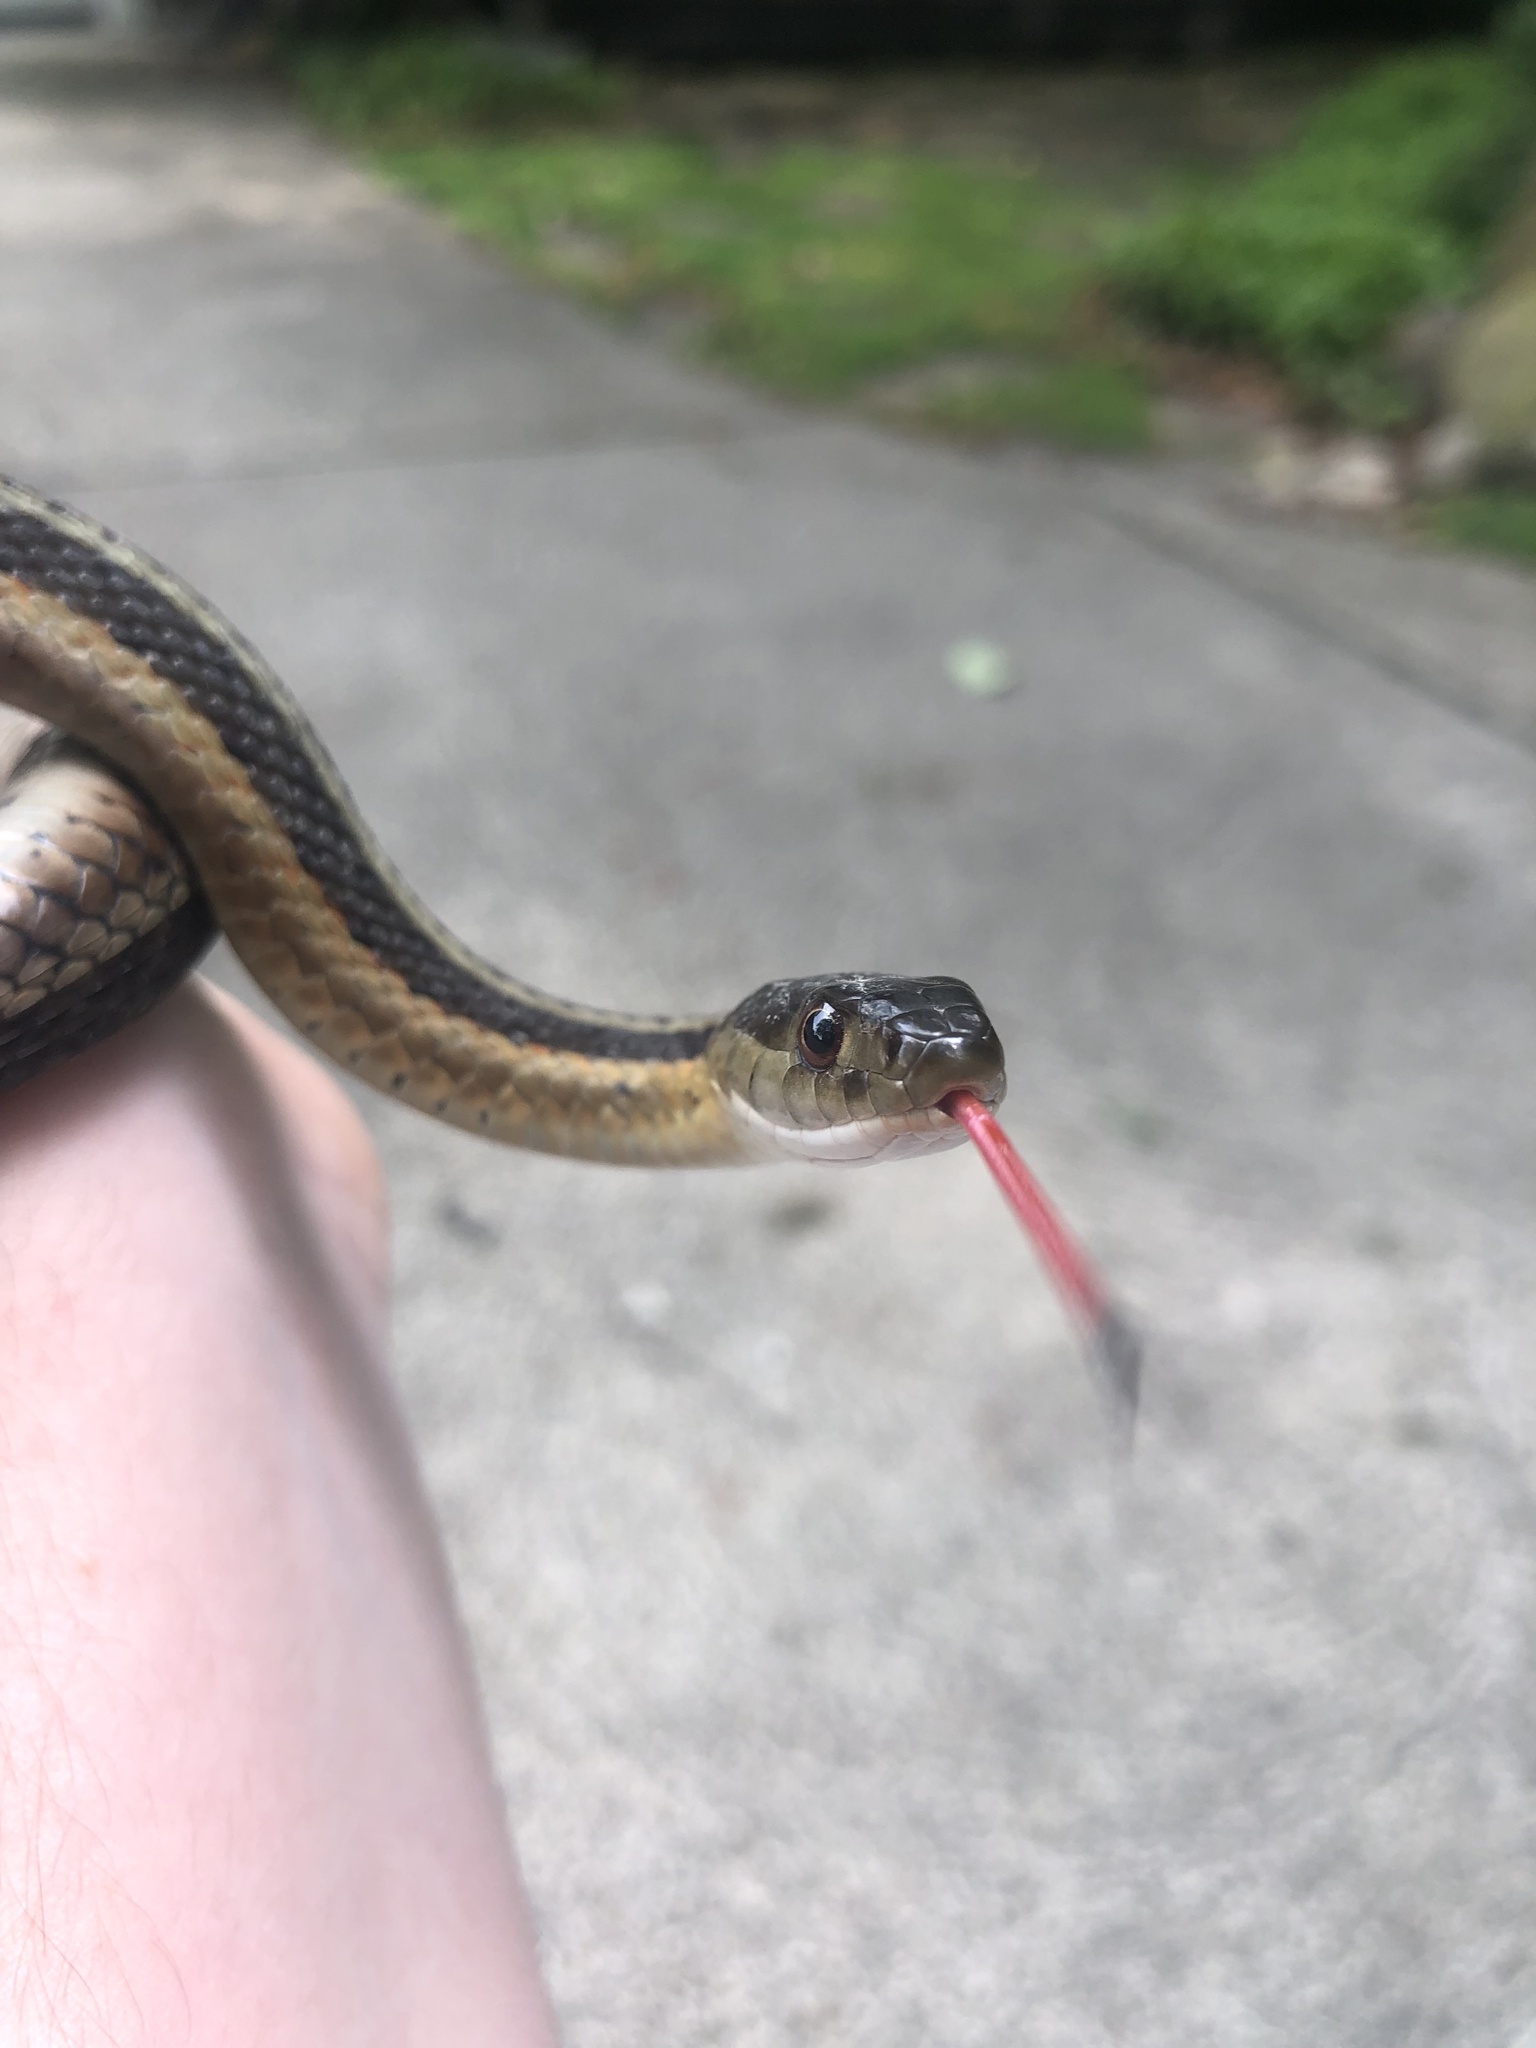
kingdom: Animalia
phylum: Chordata
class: Squamata
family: Colubridae
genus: Thamnophis
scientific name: Thamnophis sirtalis
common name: Common garter snake
